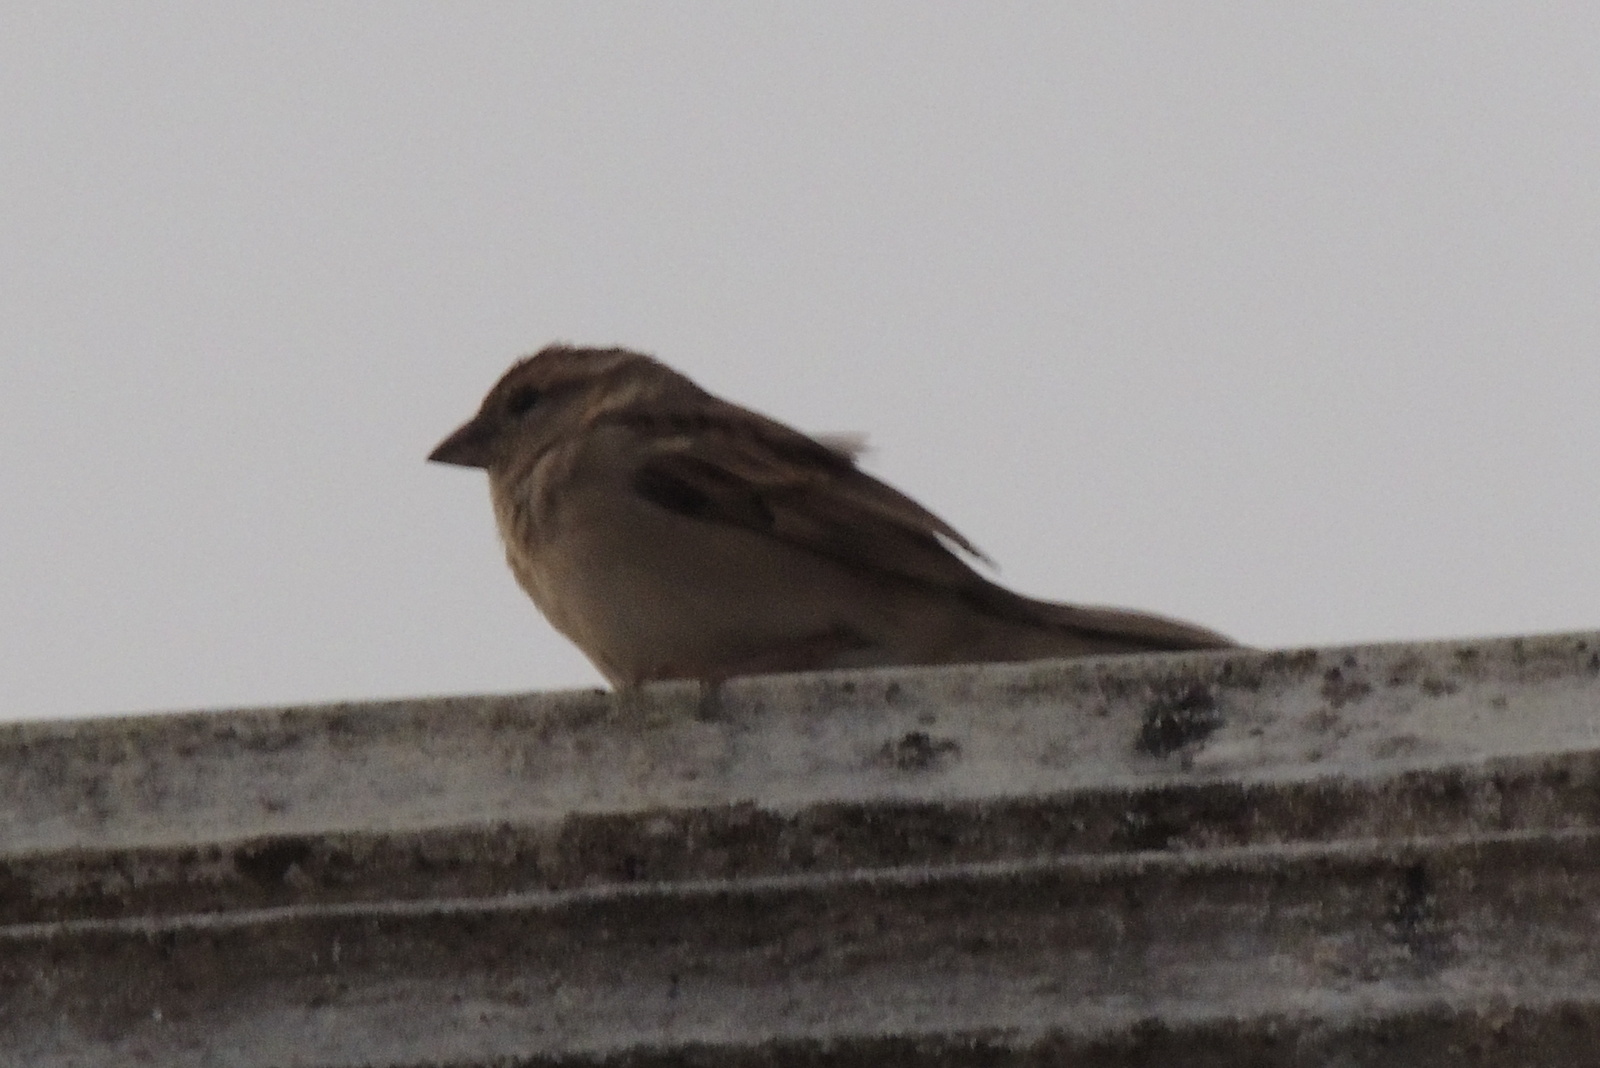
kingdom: Animalia
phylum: Chordata
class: Aves
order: Passeriformes
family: Passeridae
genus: Passer
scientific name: Passer domesticus
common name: House sparrow
